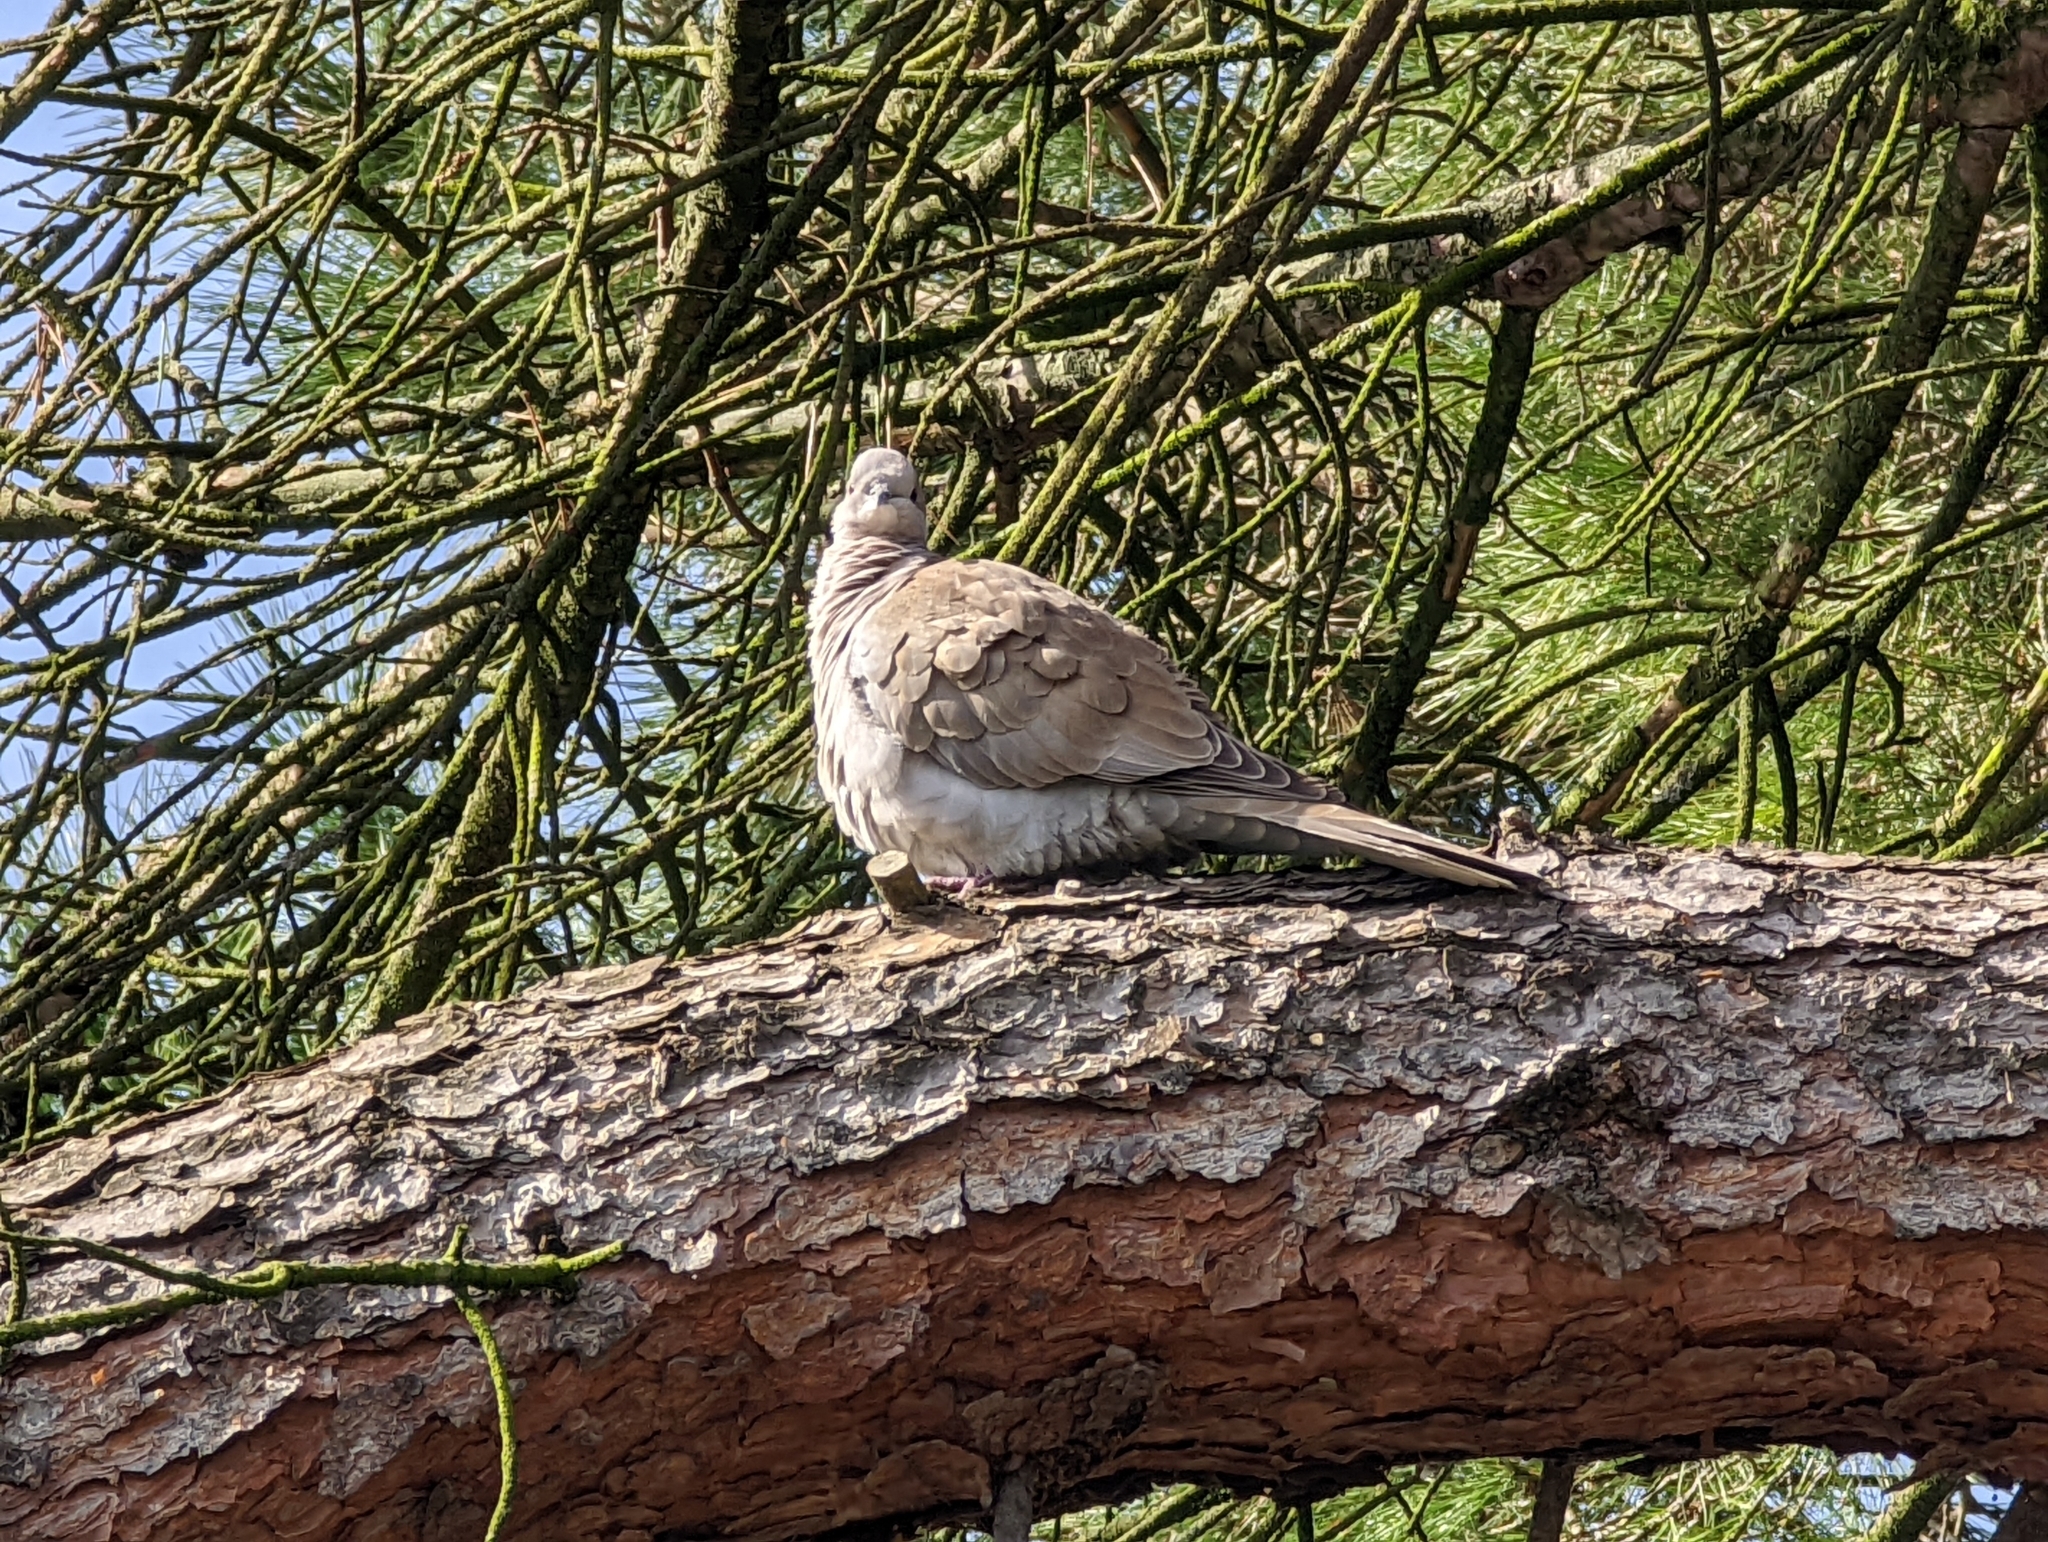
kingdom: Animalia
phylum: Chordata
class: Aves
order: Columbiformes
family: Columbidae
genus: Streptopelia
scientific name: Streptopelia decaocto
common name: Eurasian collared dove
